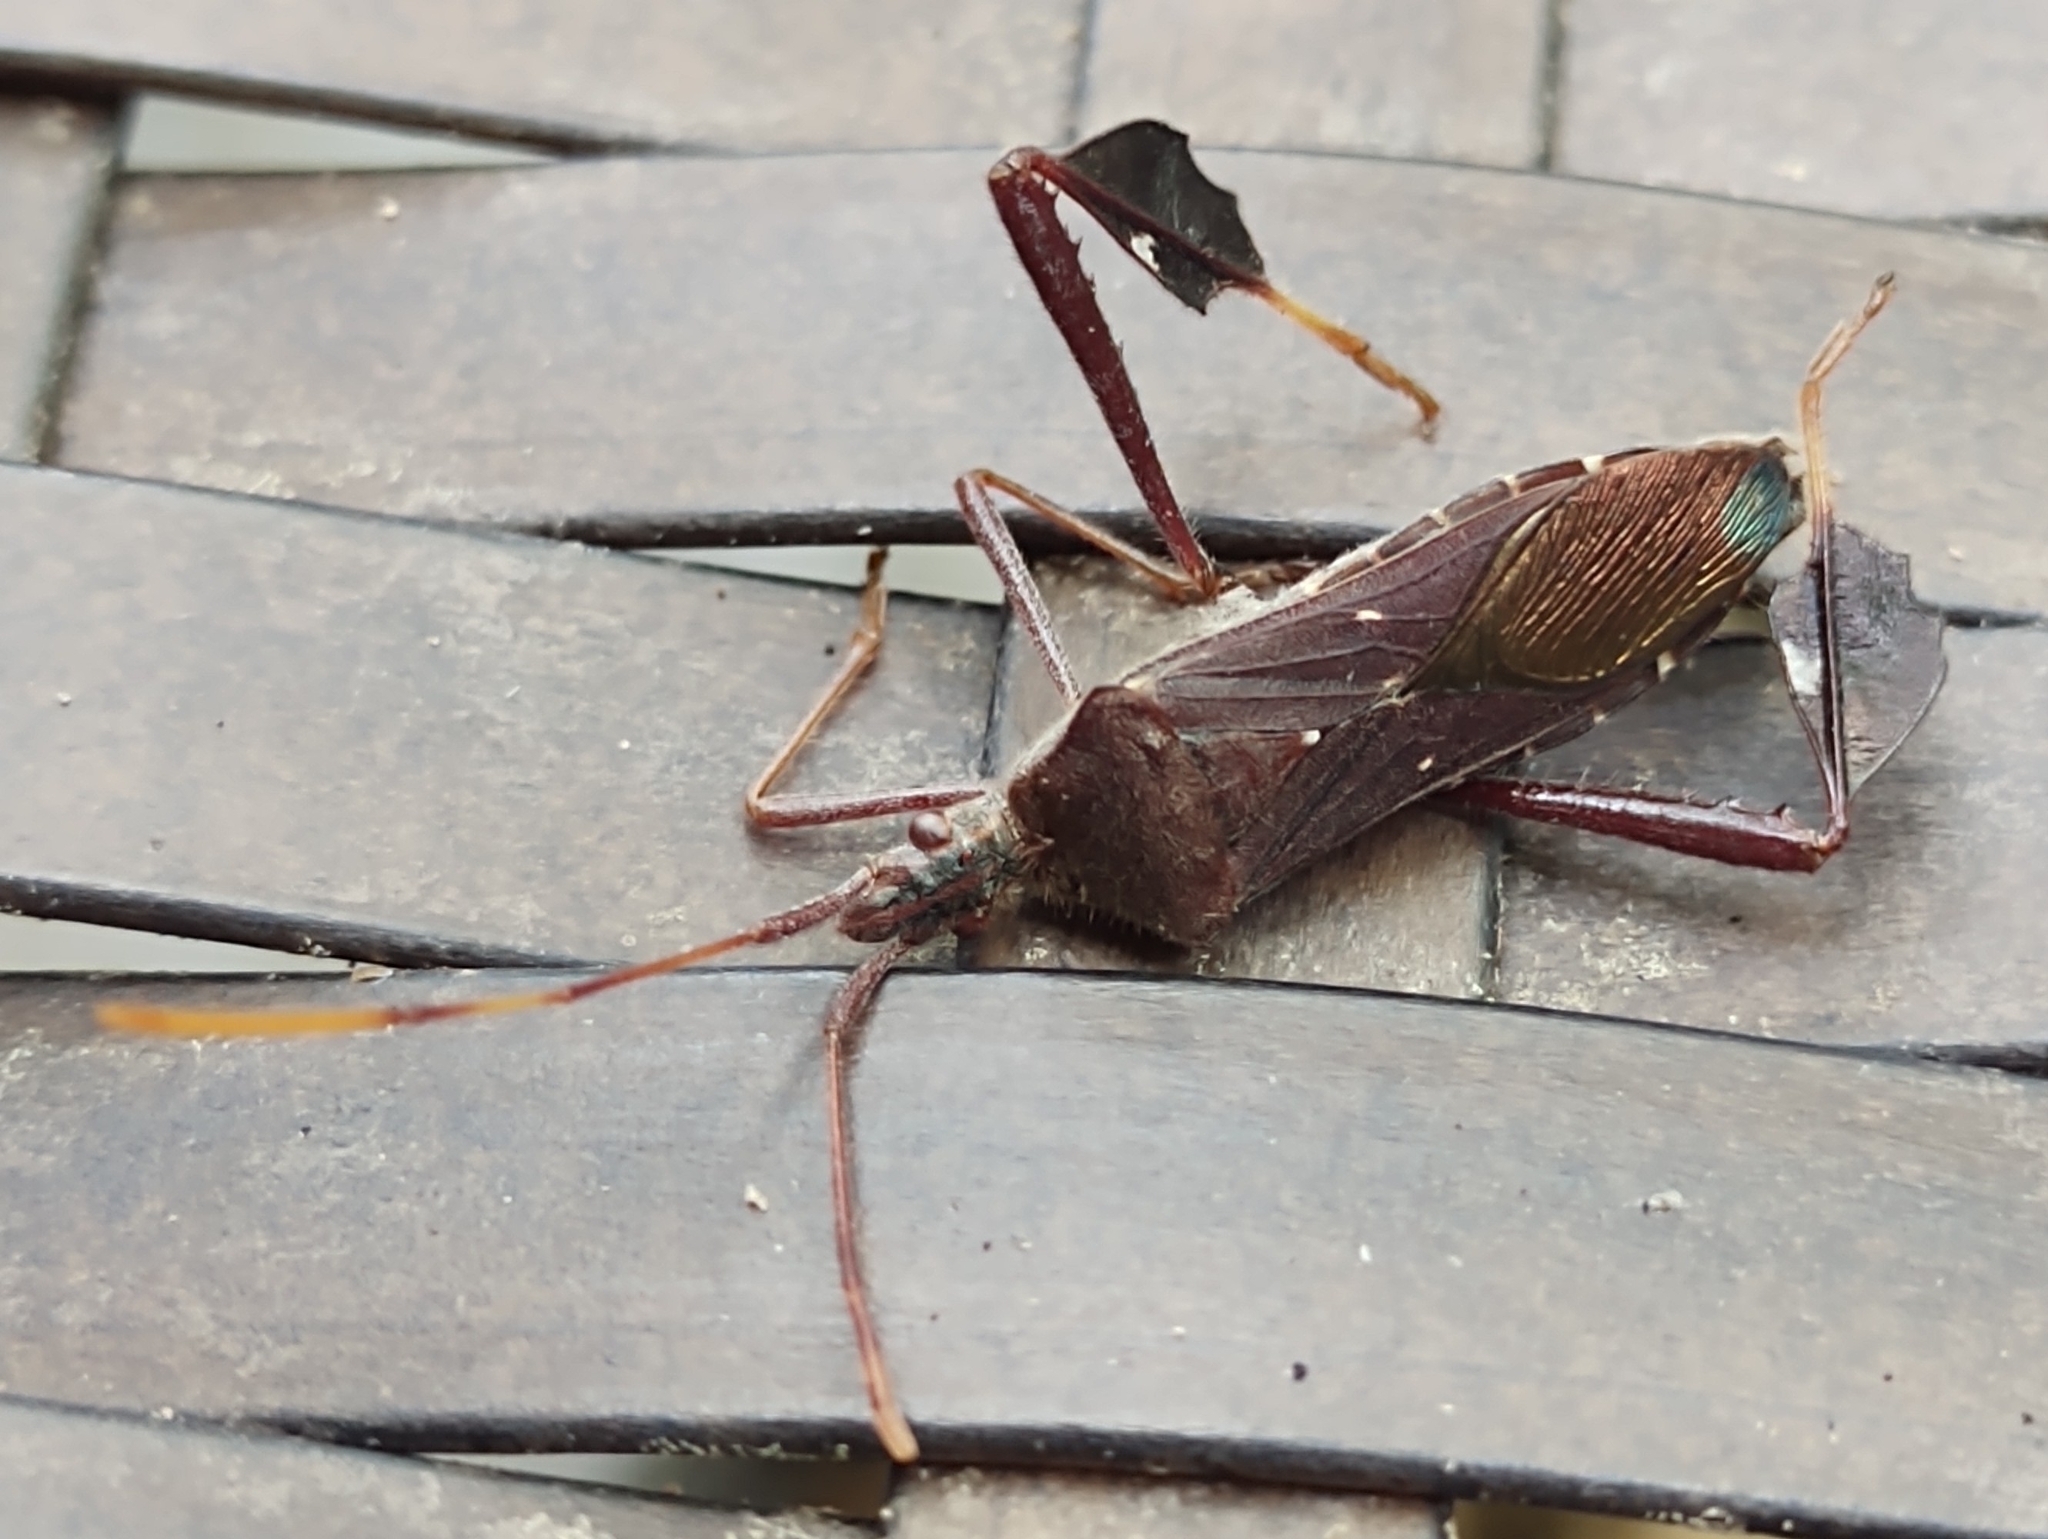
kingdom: Animalia
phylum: Arthropoda
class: Insecta
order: Hemiptera
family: Coreidae
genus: Leptoglossus
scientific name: Leptoglossus oppositus
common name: Northern leaf-footed bug
